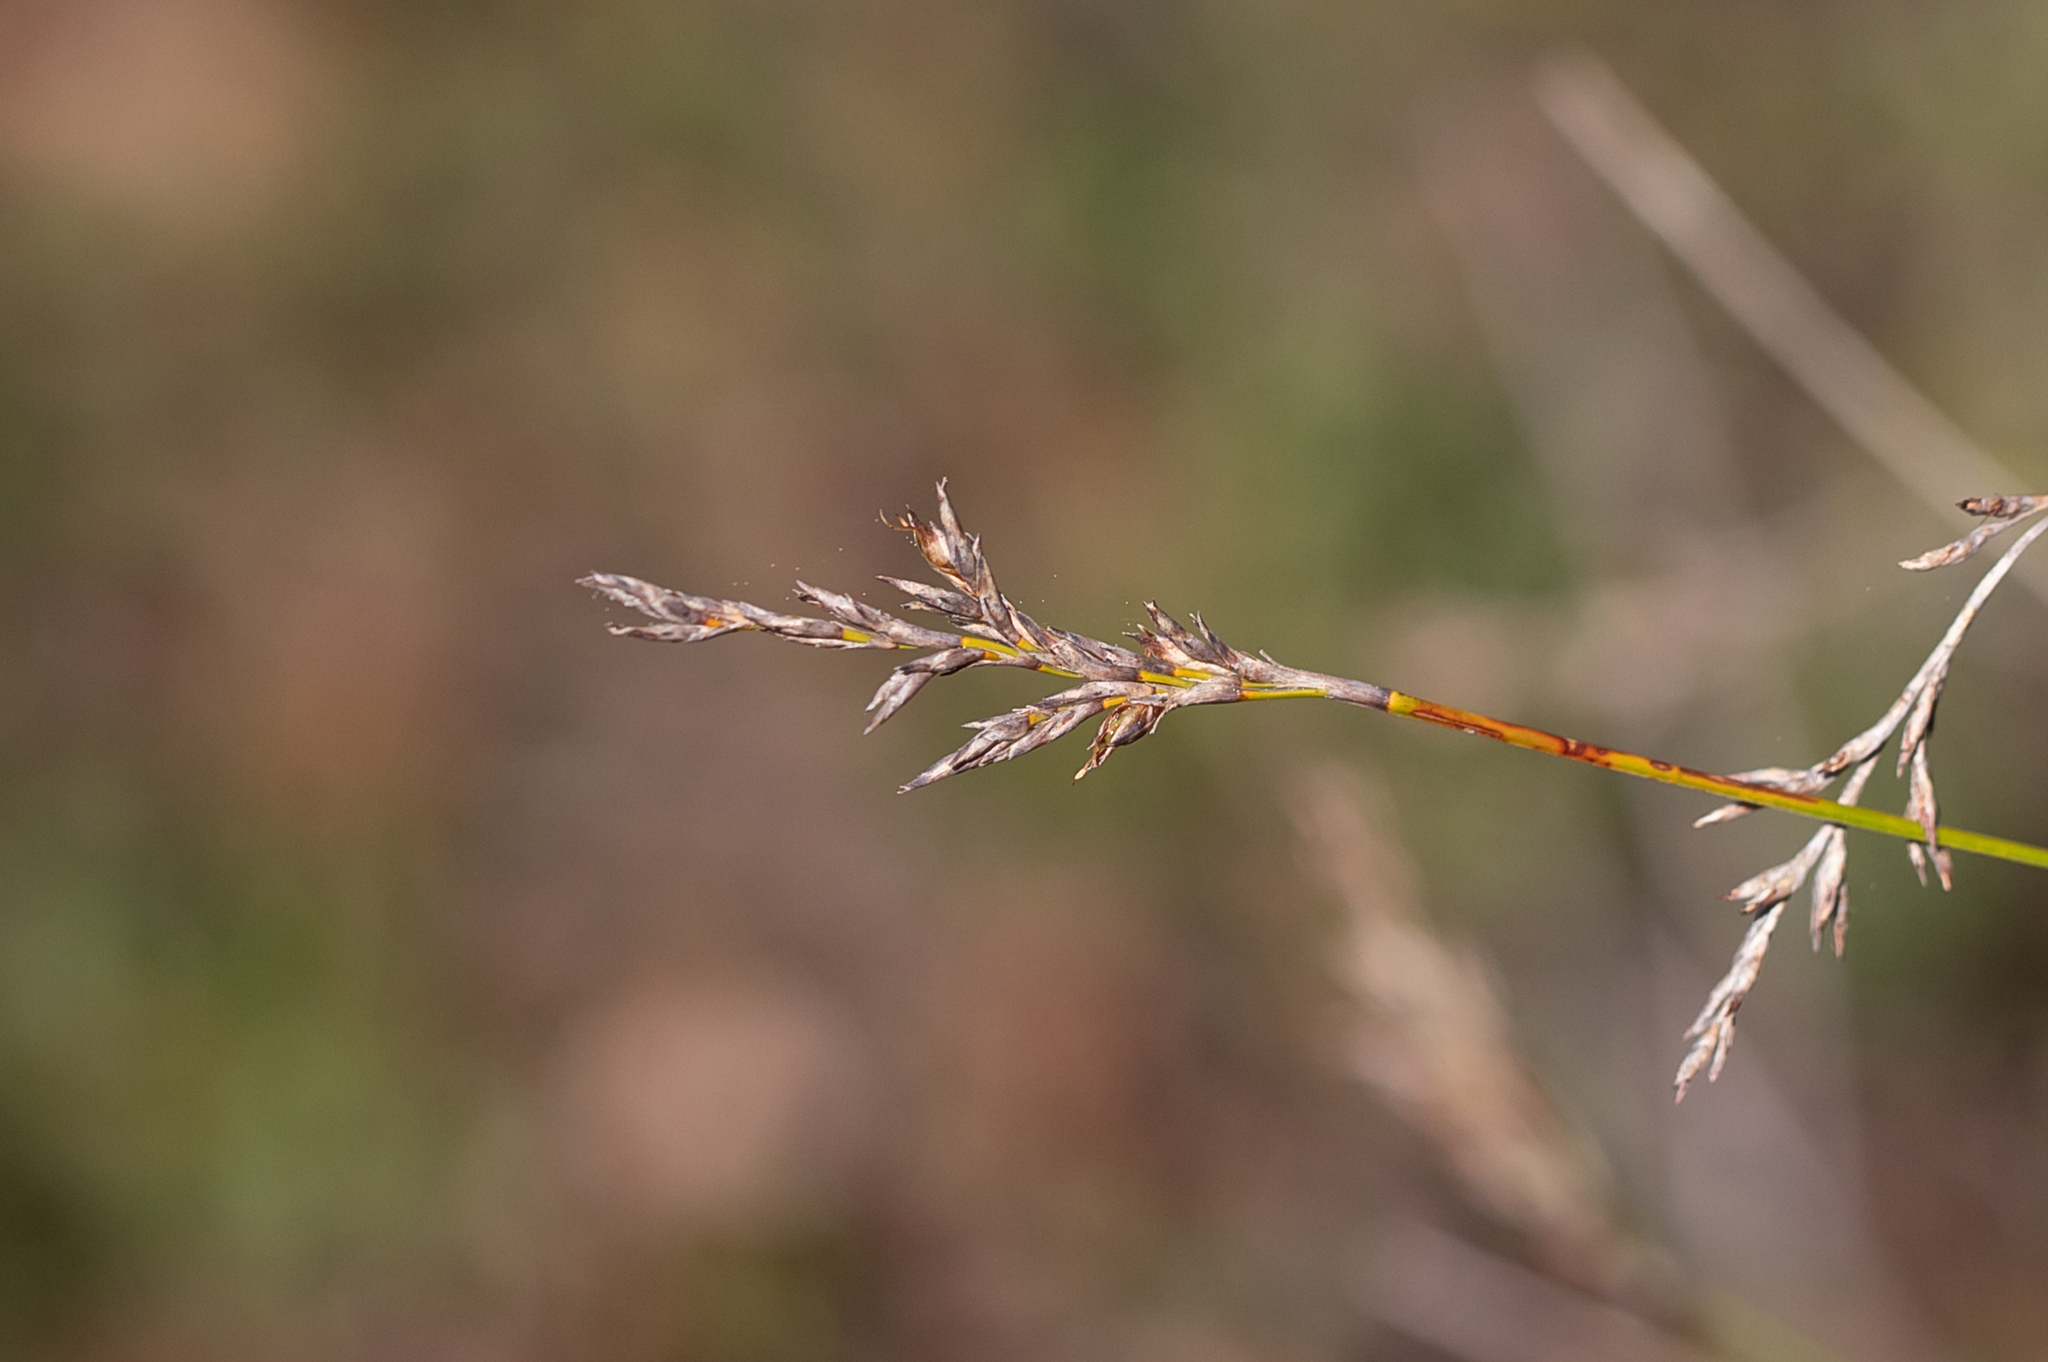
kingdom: Plantae
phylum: Tracheophyta
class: Liliopsida
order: Poales
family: Cyperaceae
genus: Lepidosperma
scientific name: Lepidosperma semiteres
